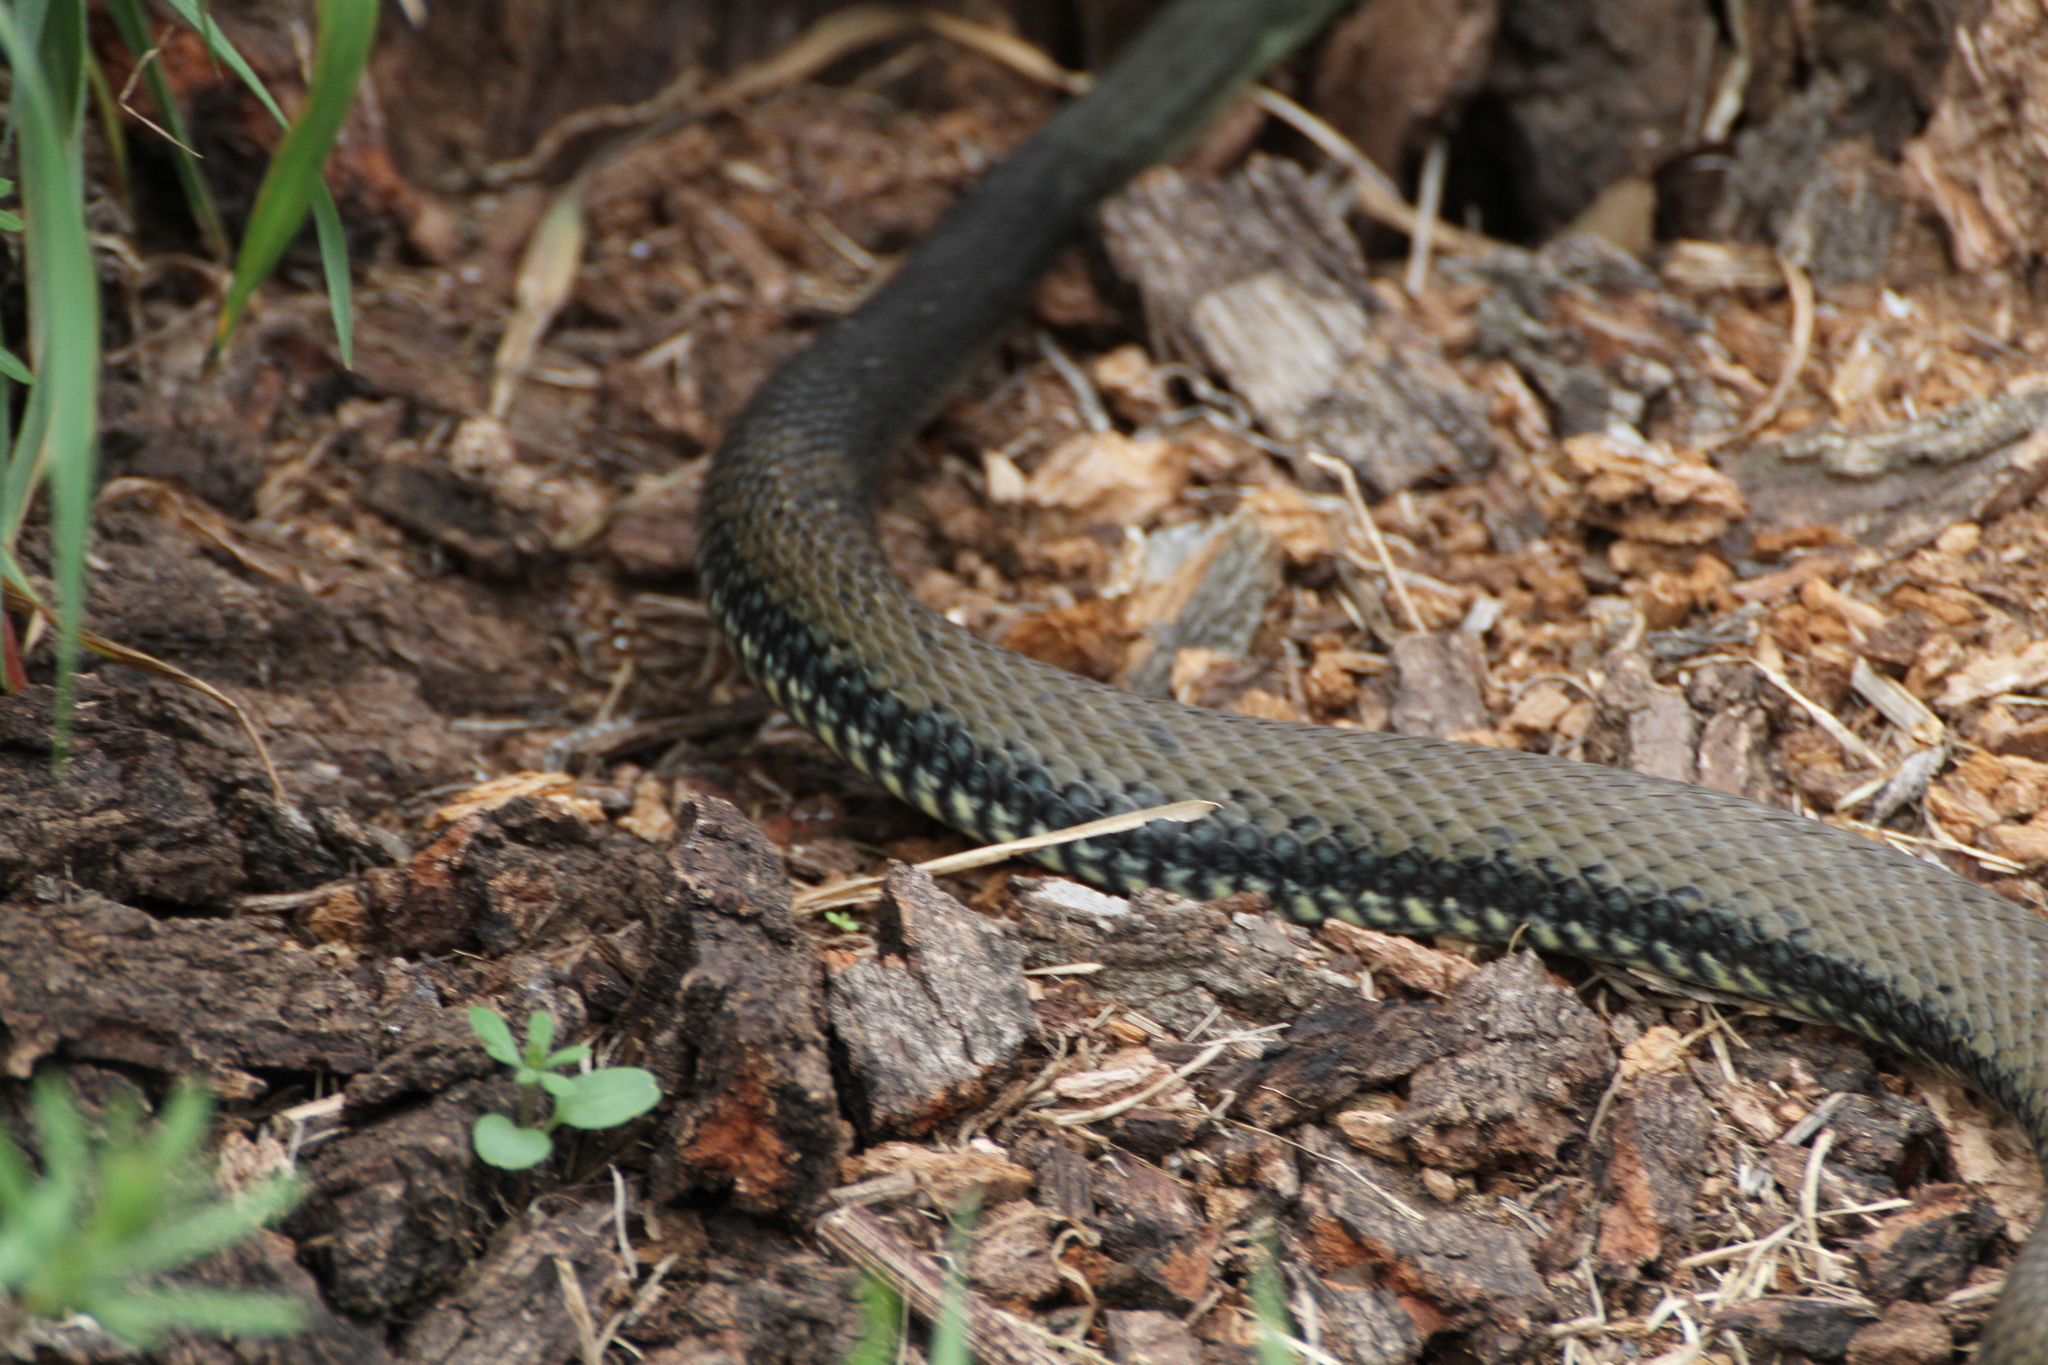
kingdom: Animalia
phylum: Chordata
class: Squamata
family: Psammophiidae
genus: Malpolon
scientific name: Malpolon monspessulanus
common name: Montpellier snake
